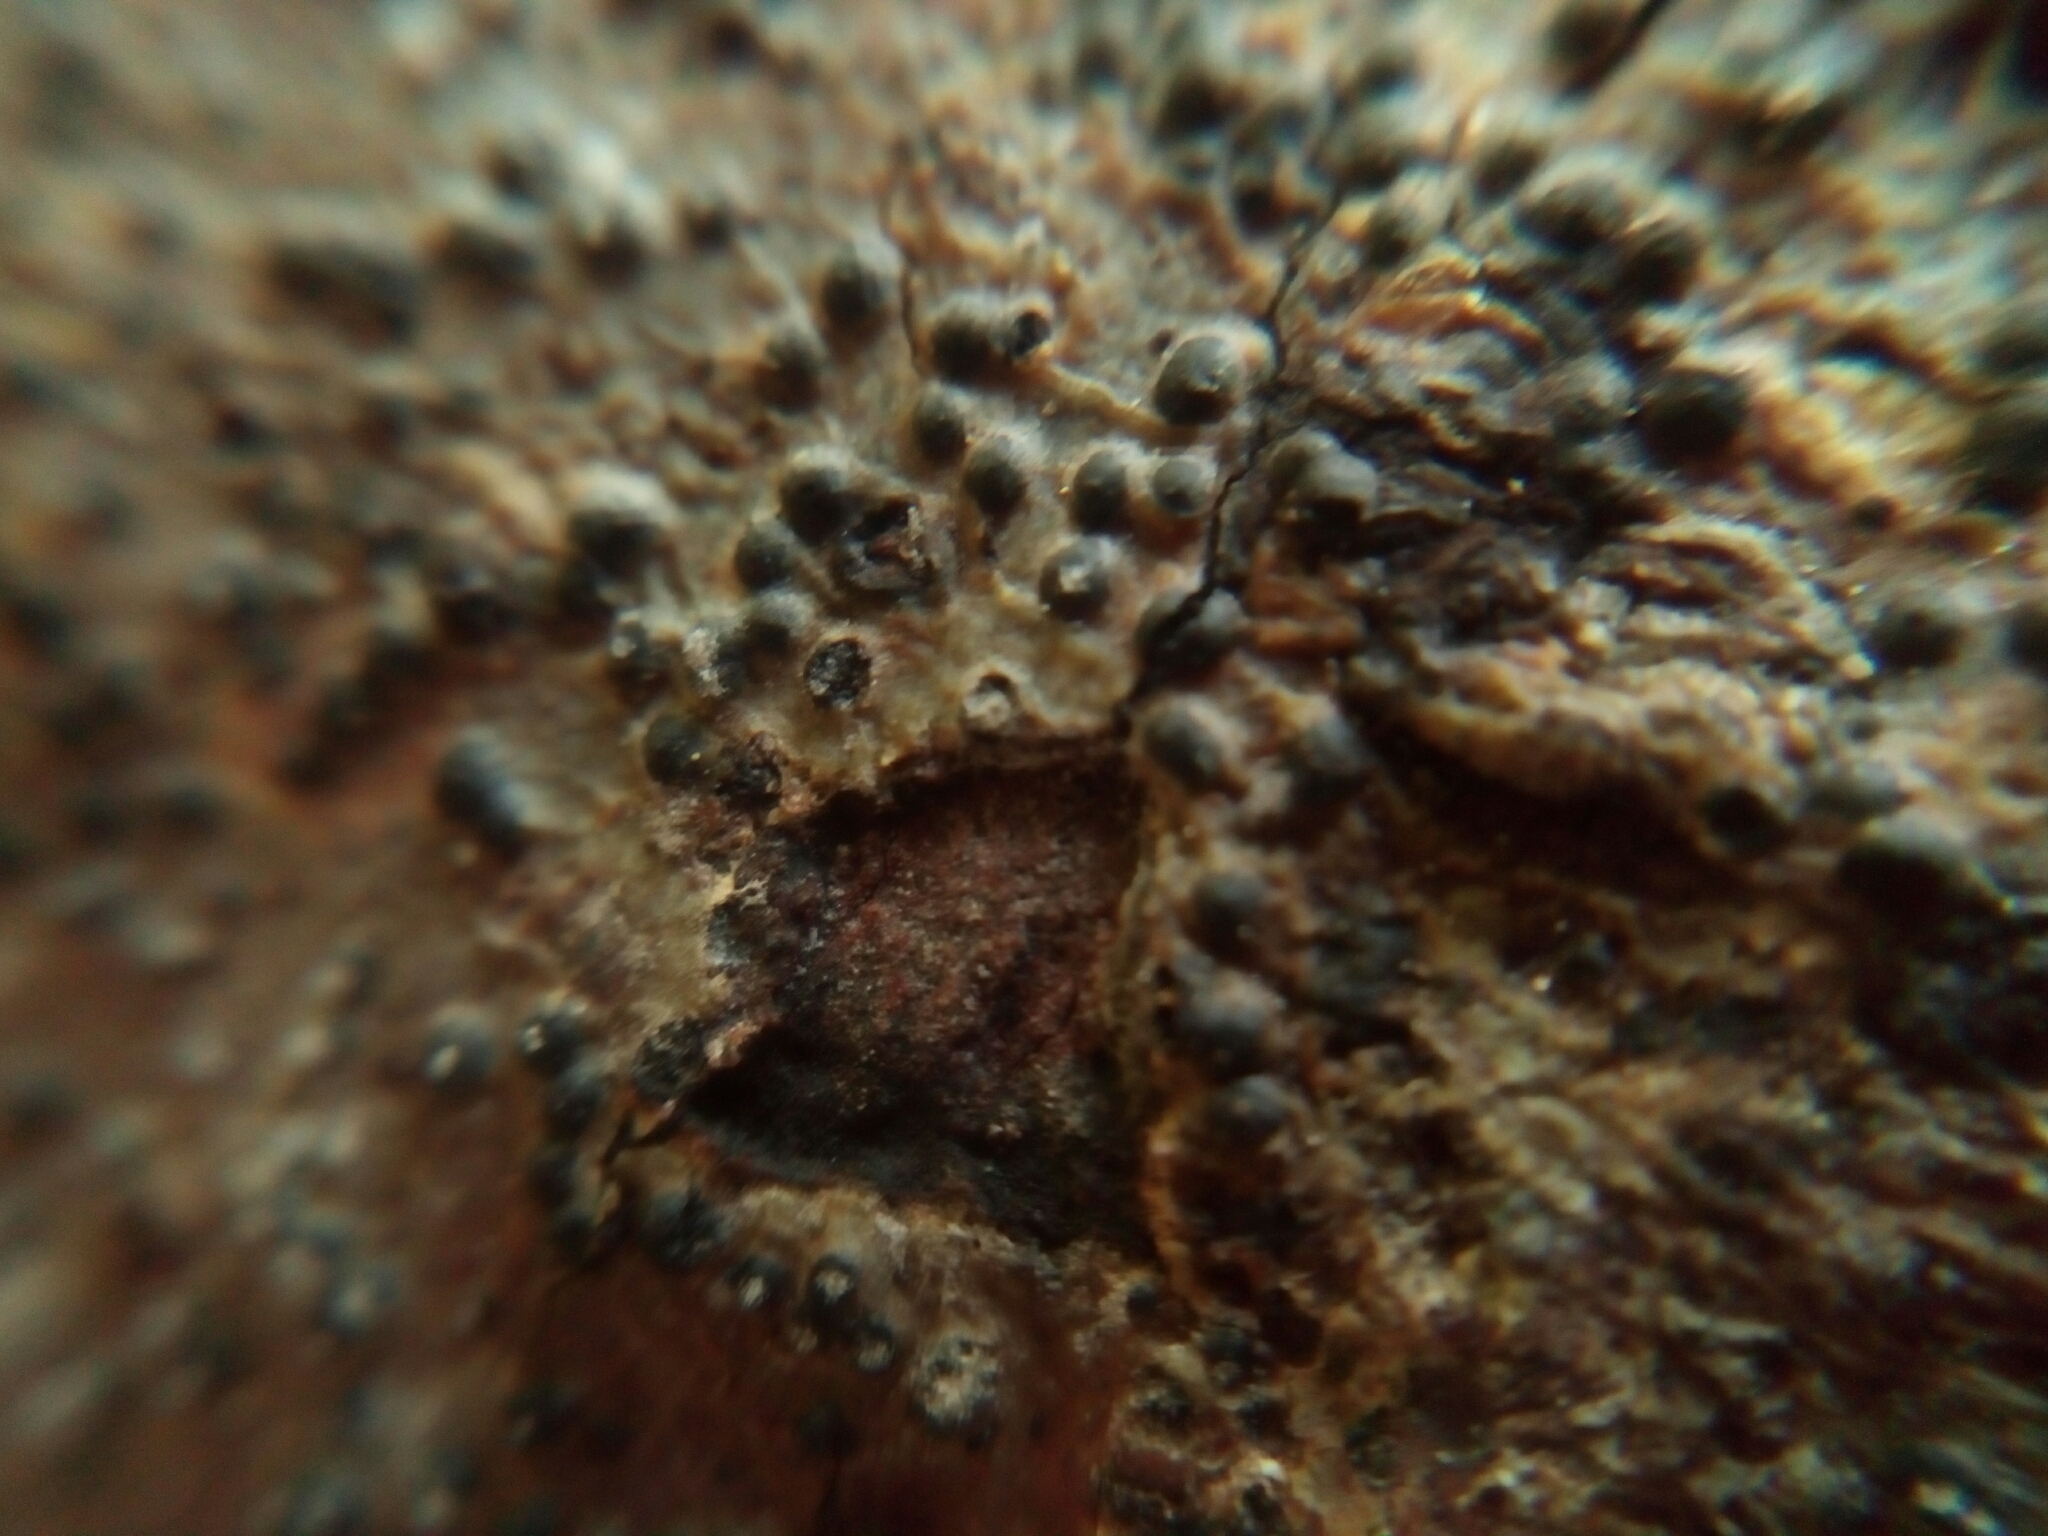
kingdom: Fungi
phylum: Ascomycota
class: Eurotiomycetes
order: Pyrenulales
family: Pyrenulaceae
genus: Pyrenula
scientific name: Pyrenula pseudobufonia
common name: Easter pox lichen
